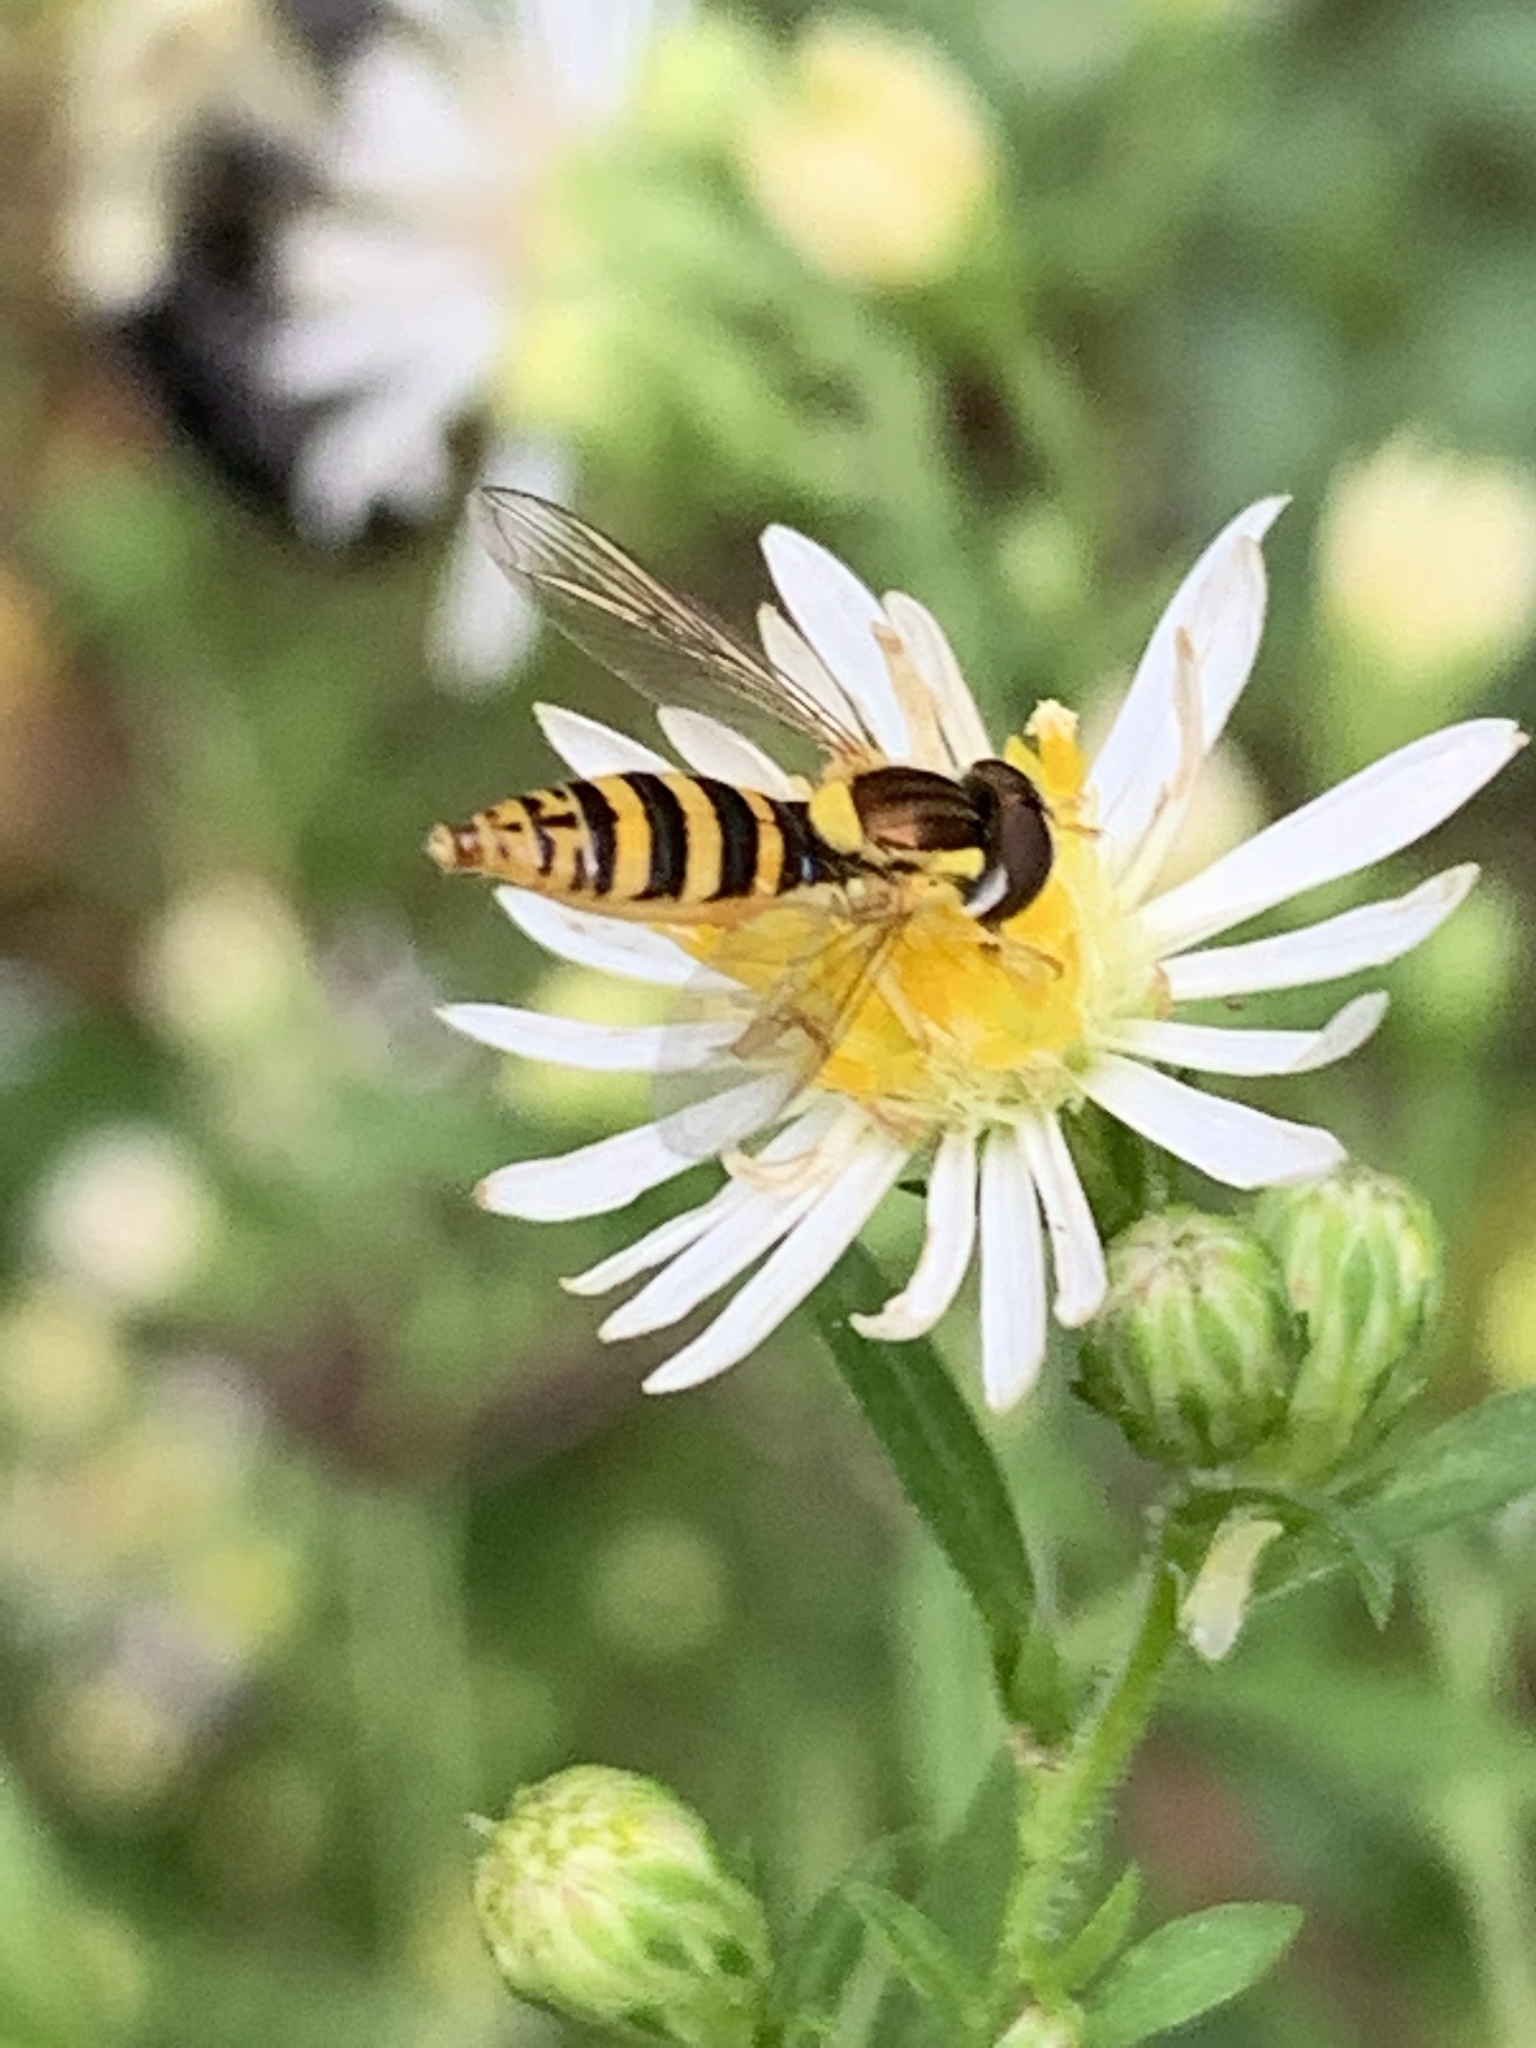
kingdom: Animalia
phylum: Arthropoda
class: Insecta
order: Diptera
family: Syrphidae
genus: Sphaerophoria
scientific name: Sphaerophoria
